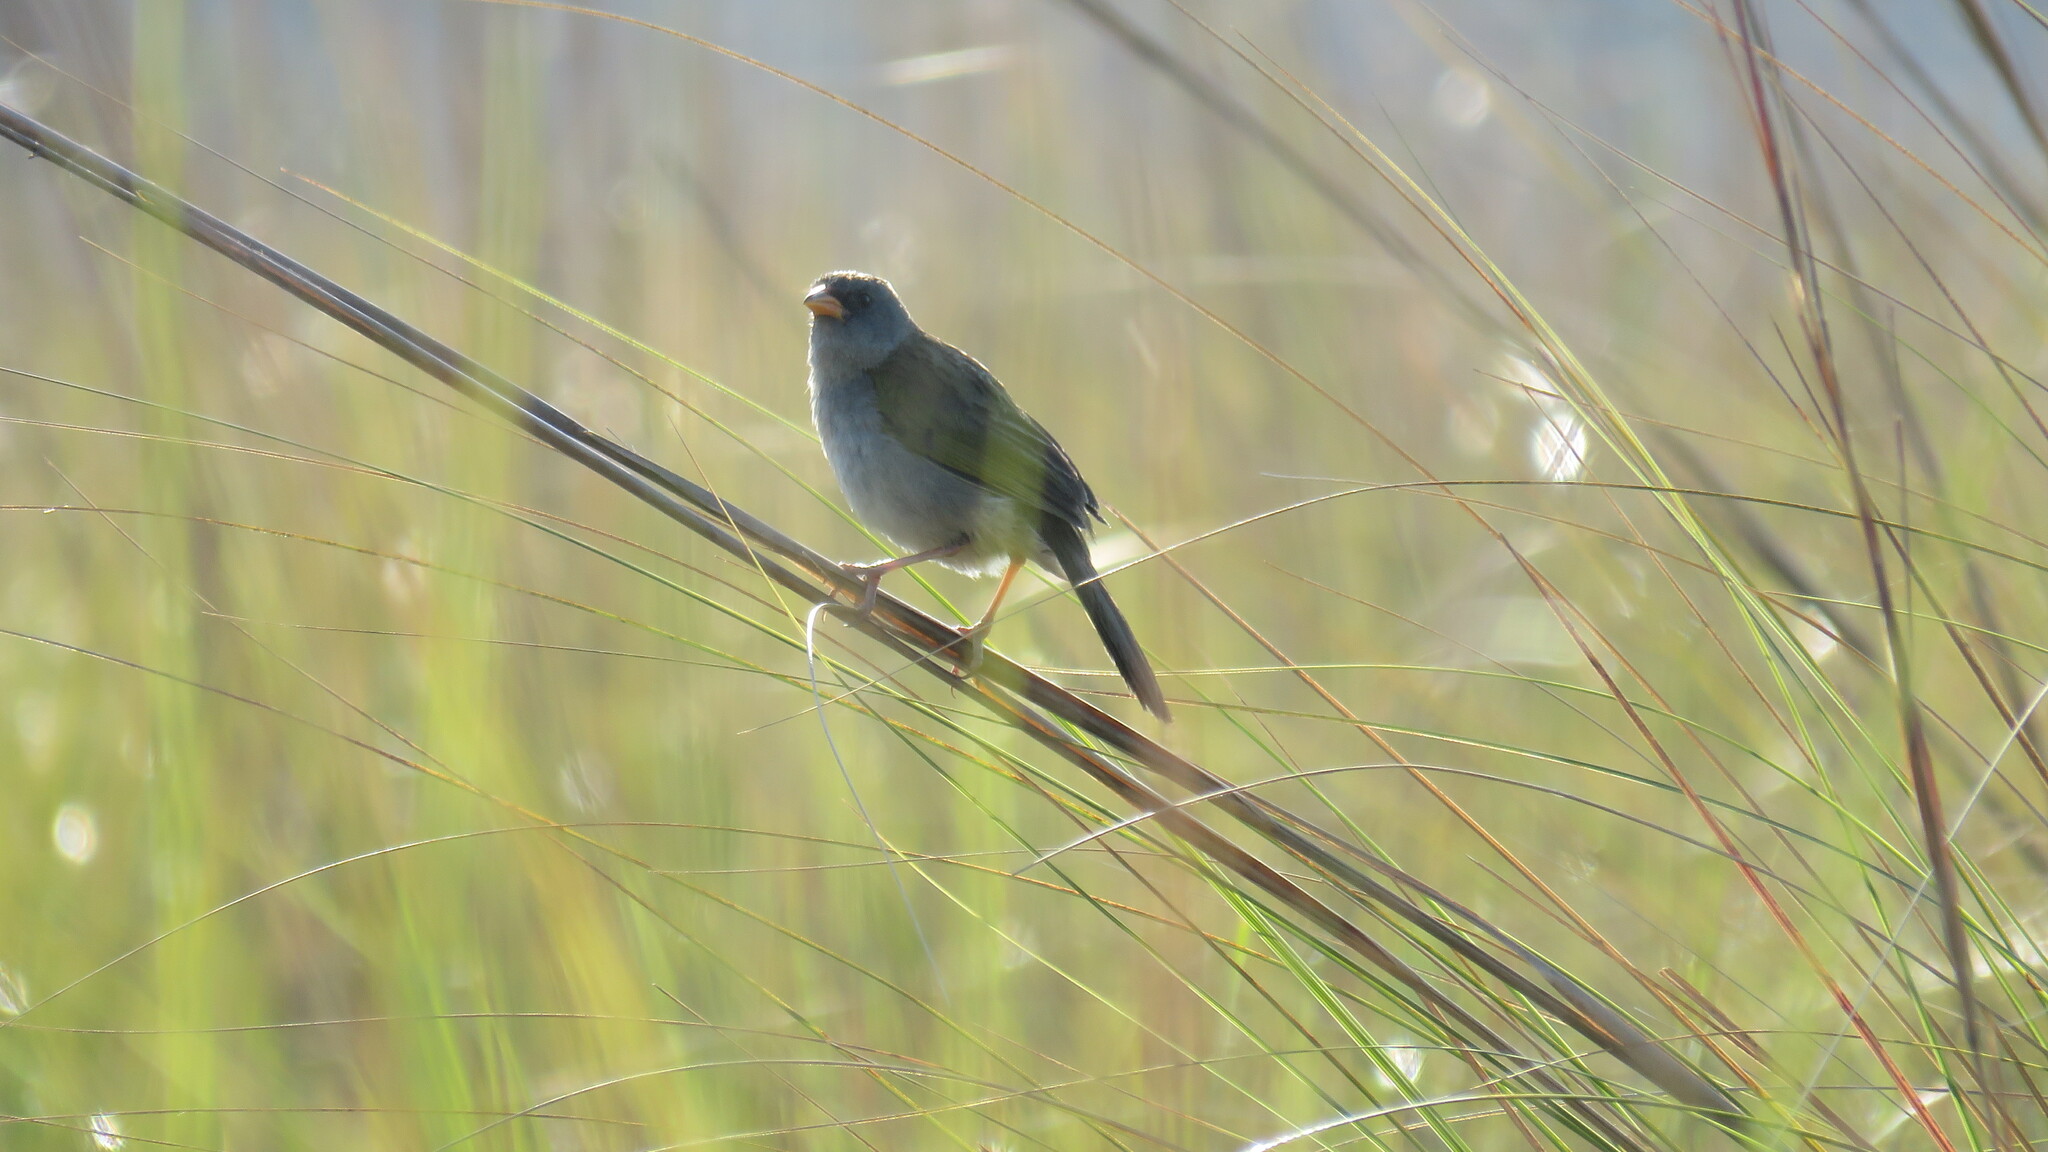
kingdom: Animalia
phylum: Chordata
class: Aves
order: Passeriformes
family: Thraupidae
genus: Embernagra
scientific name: Embernagra platensis
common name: Pampa finch
